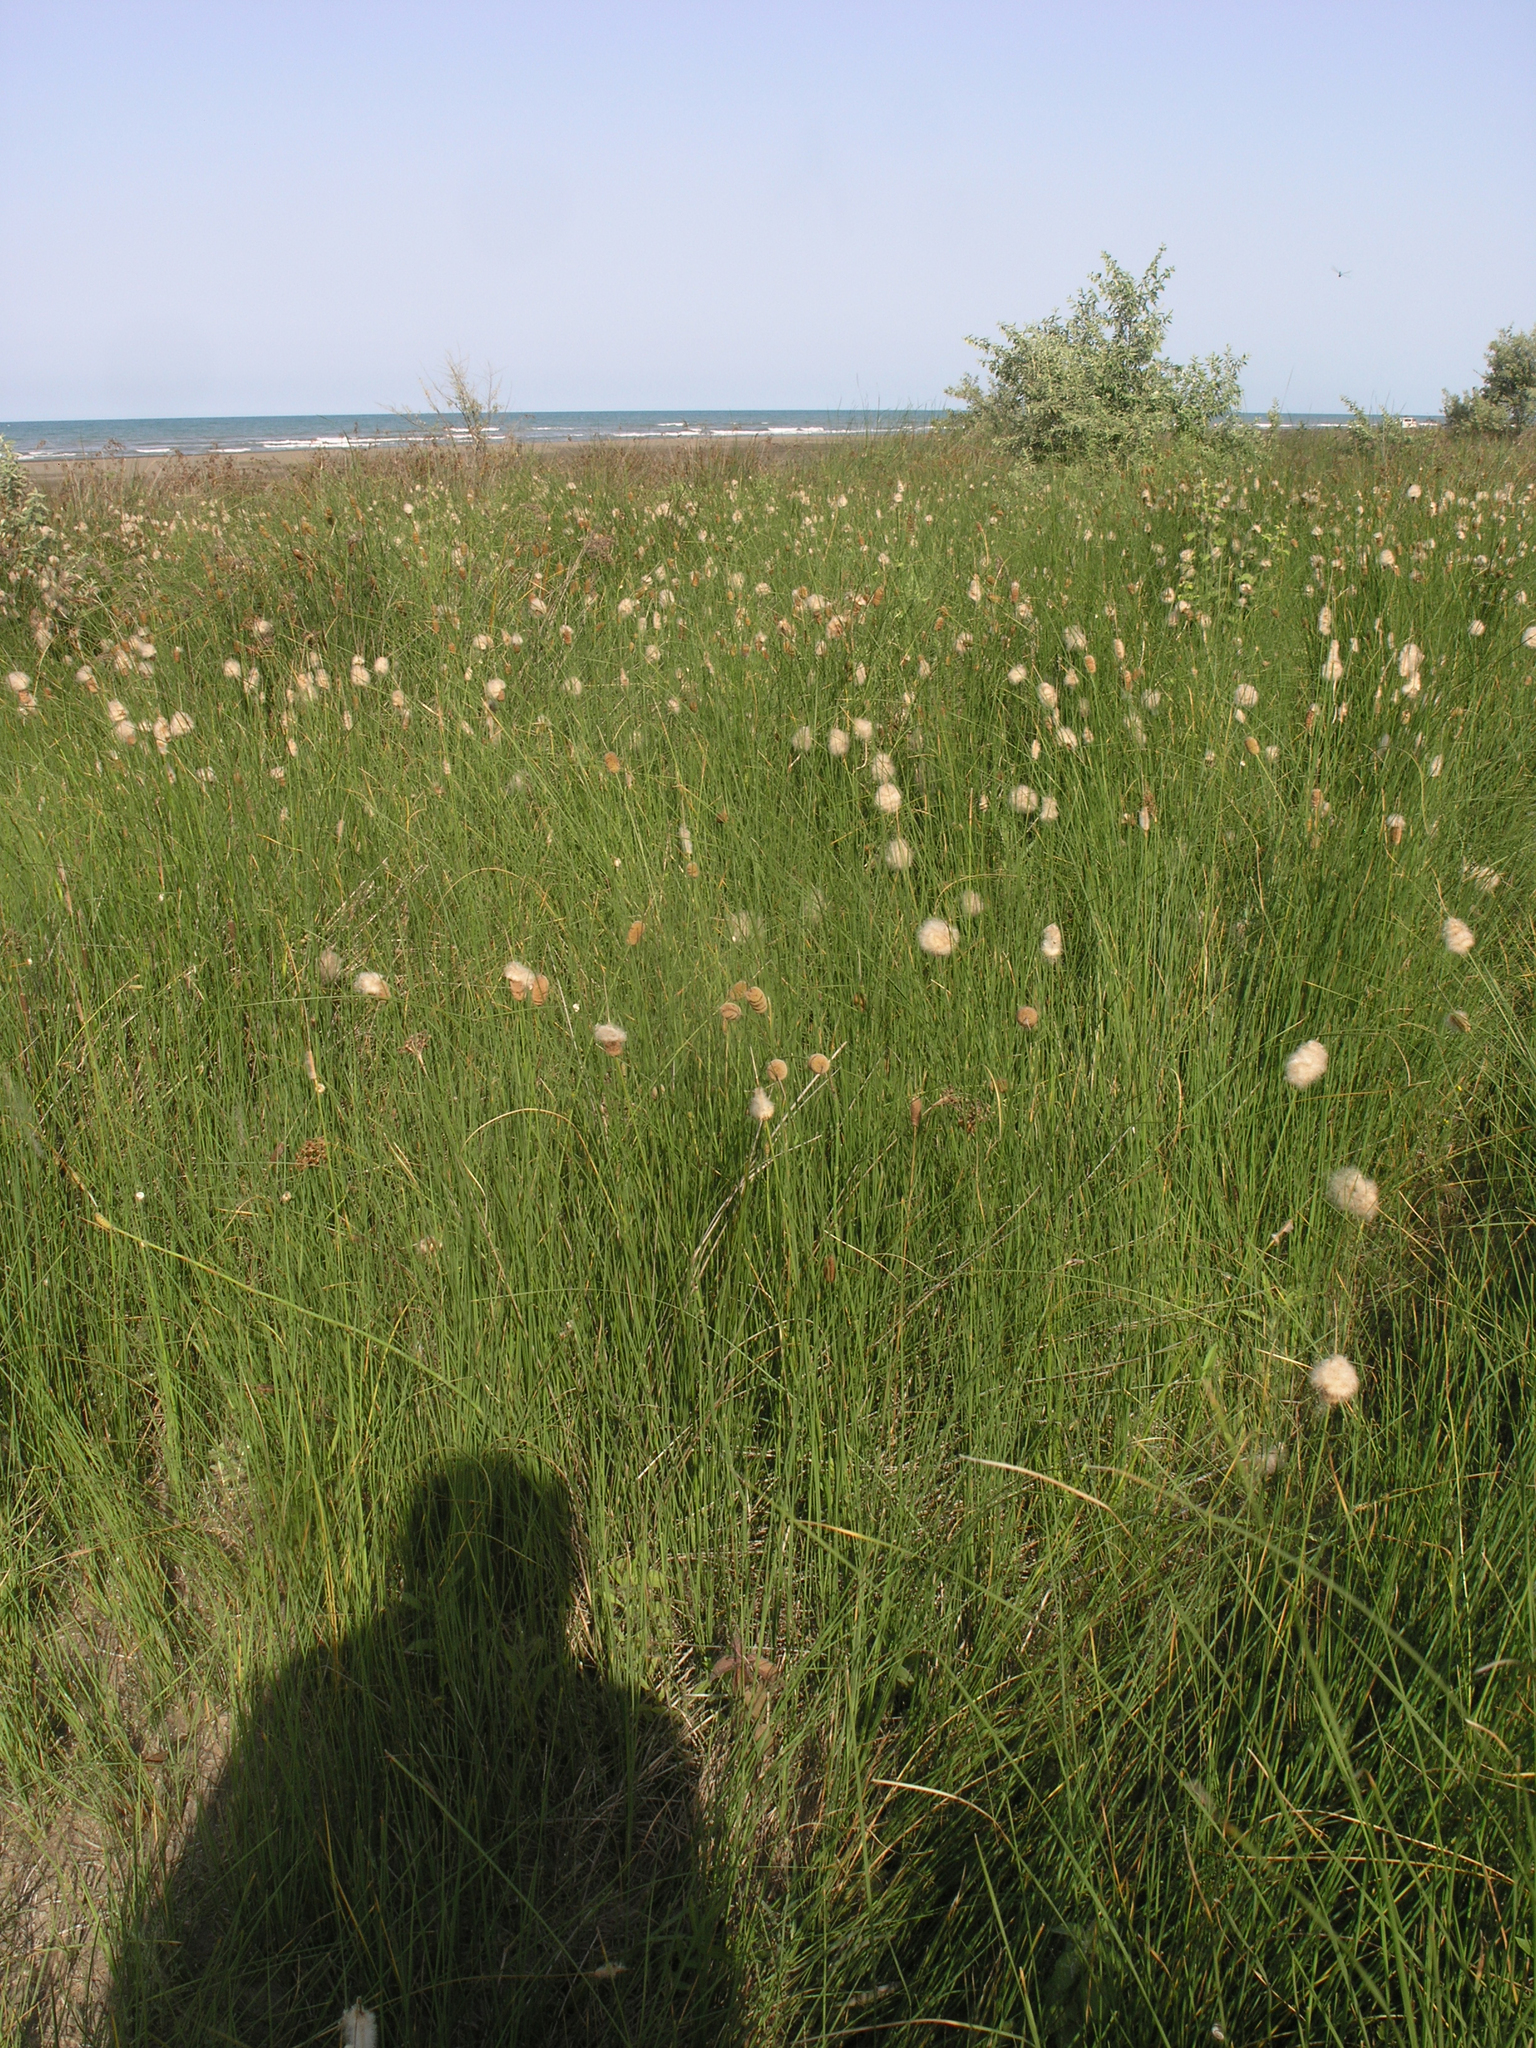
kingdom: Plantae
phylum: Tracheophyta
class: Liliopsida
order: Poales
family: Typhaceae
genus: Typha
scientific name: Typha laxmannii
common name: Laxman’s bulrush
